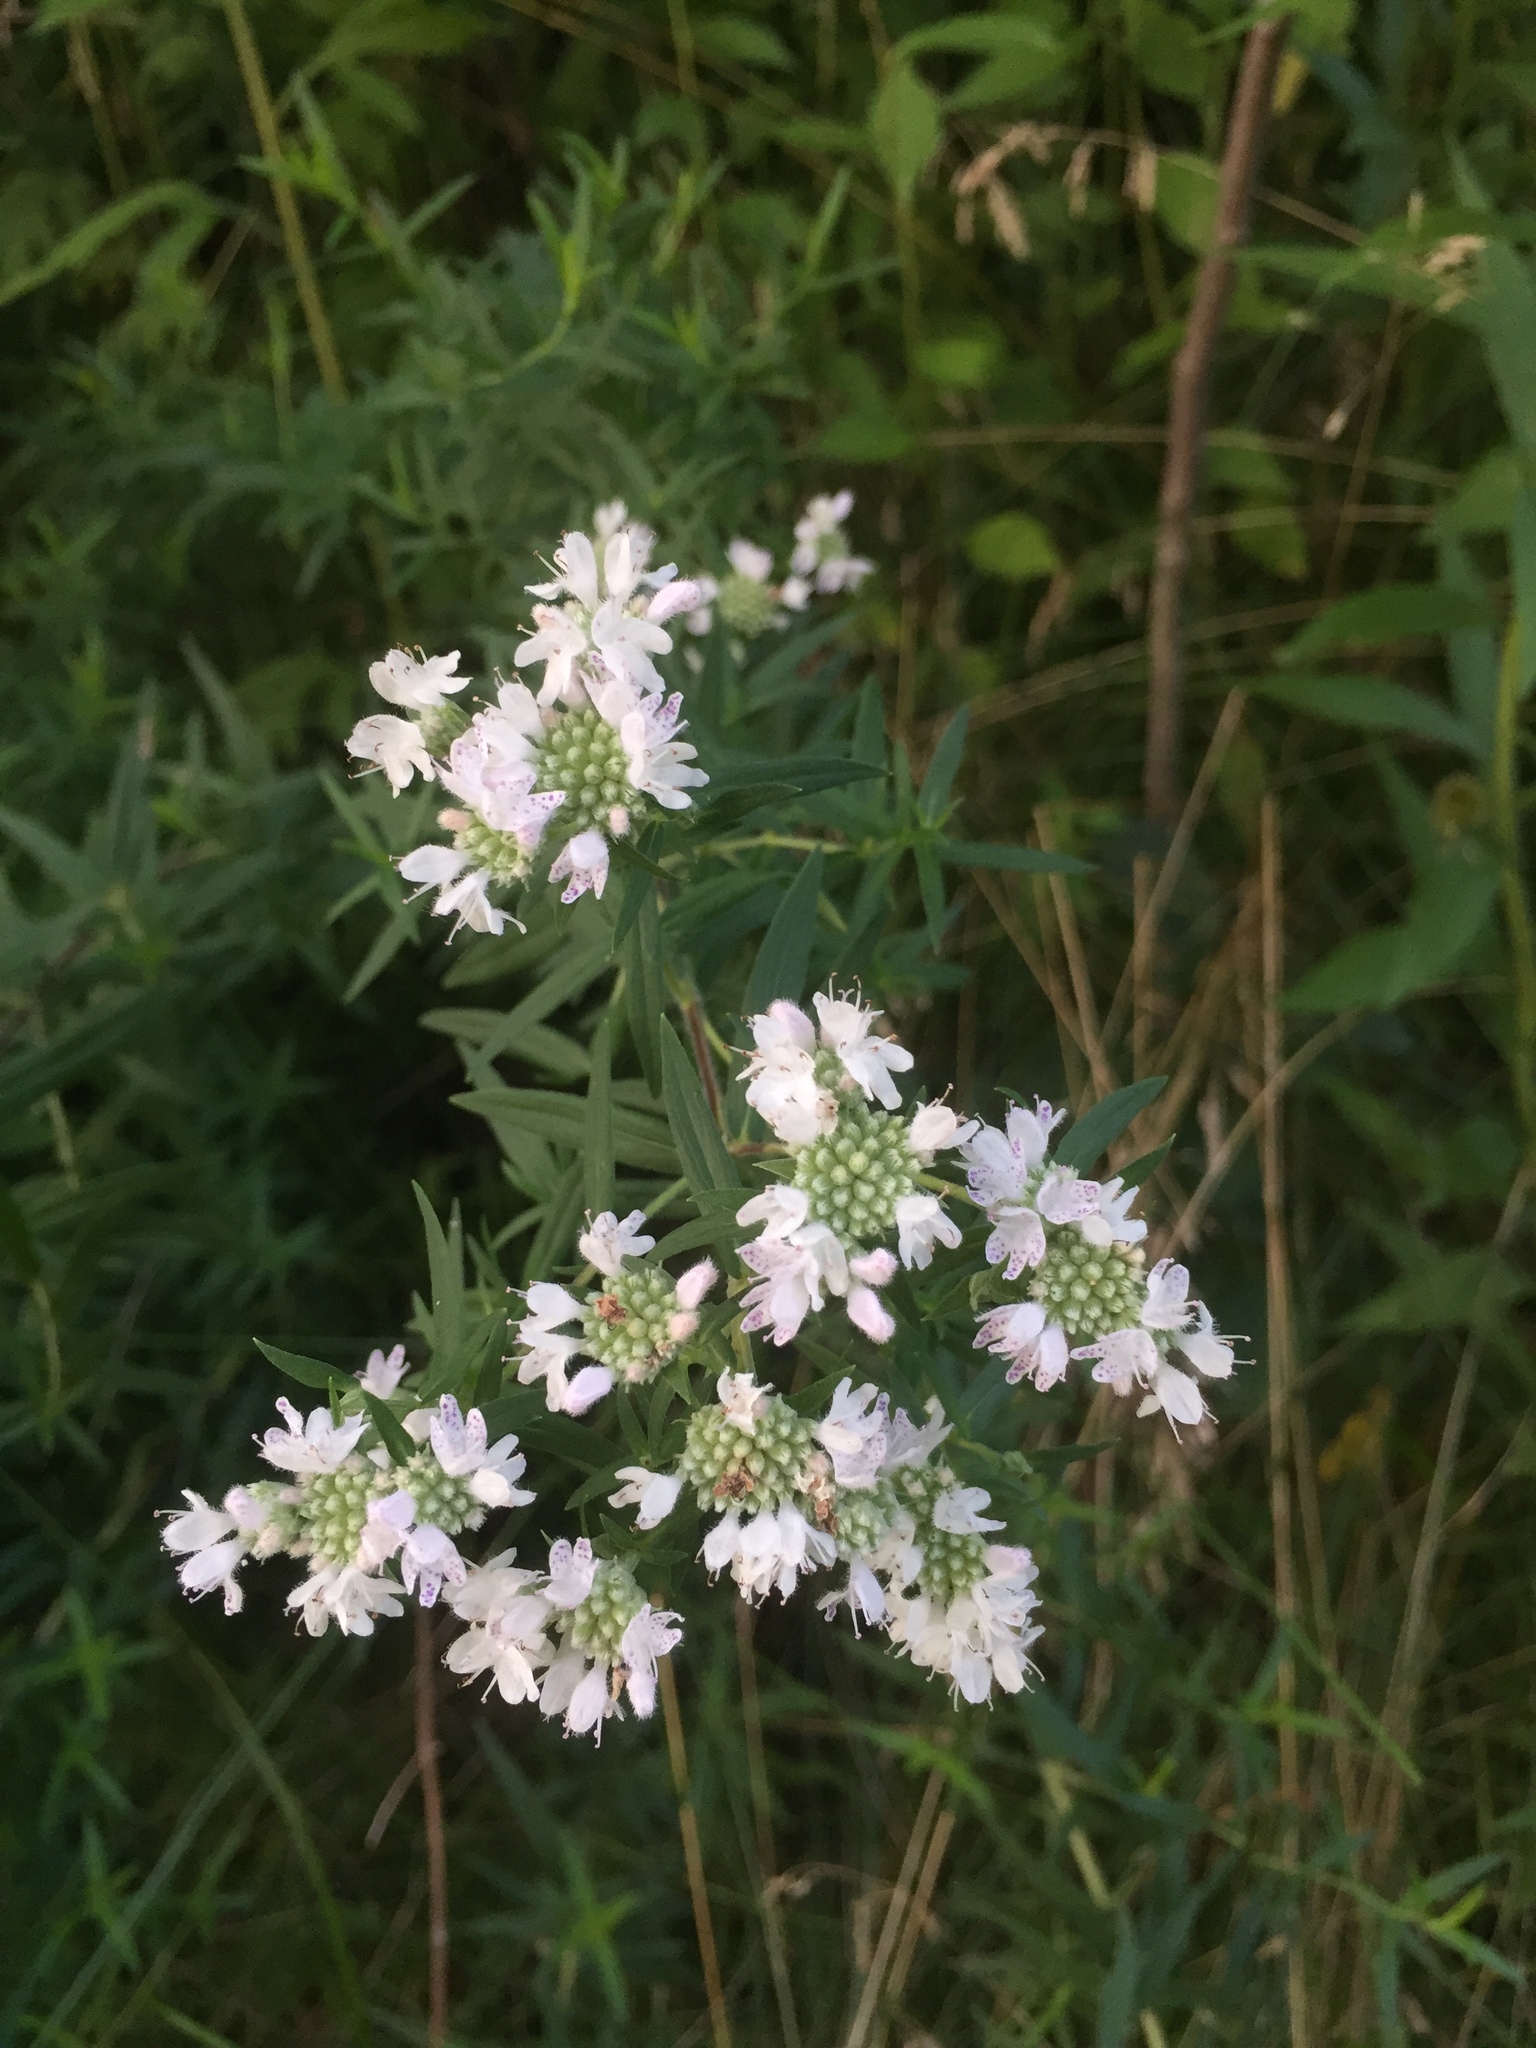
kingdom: Plantae
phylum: Tracheophyta
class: Magnoliopsida
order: Lamiales
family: Lamiaceae
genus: Pycnanthemum
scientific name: Pycnanthemum virginianum
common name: Virginia mountain-mint
